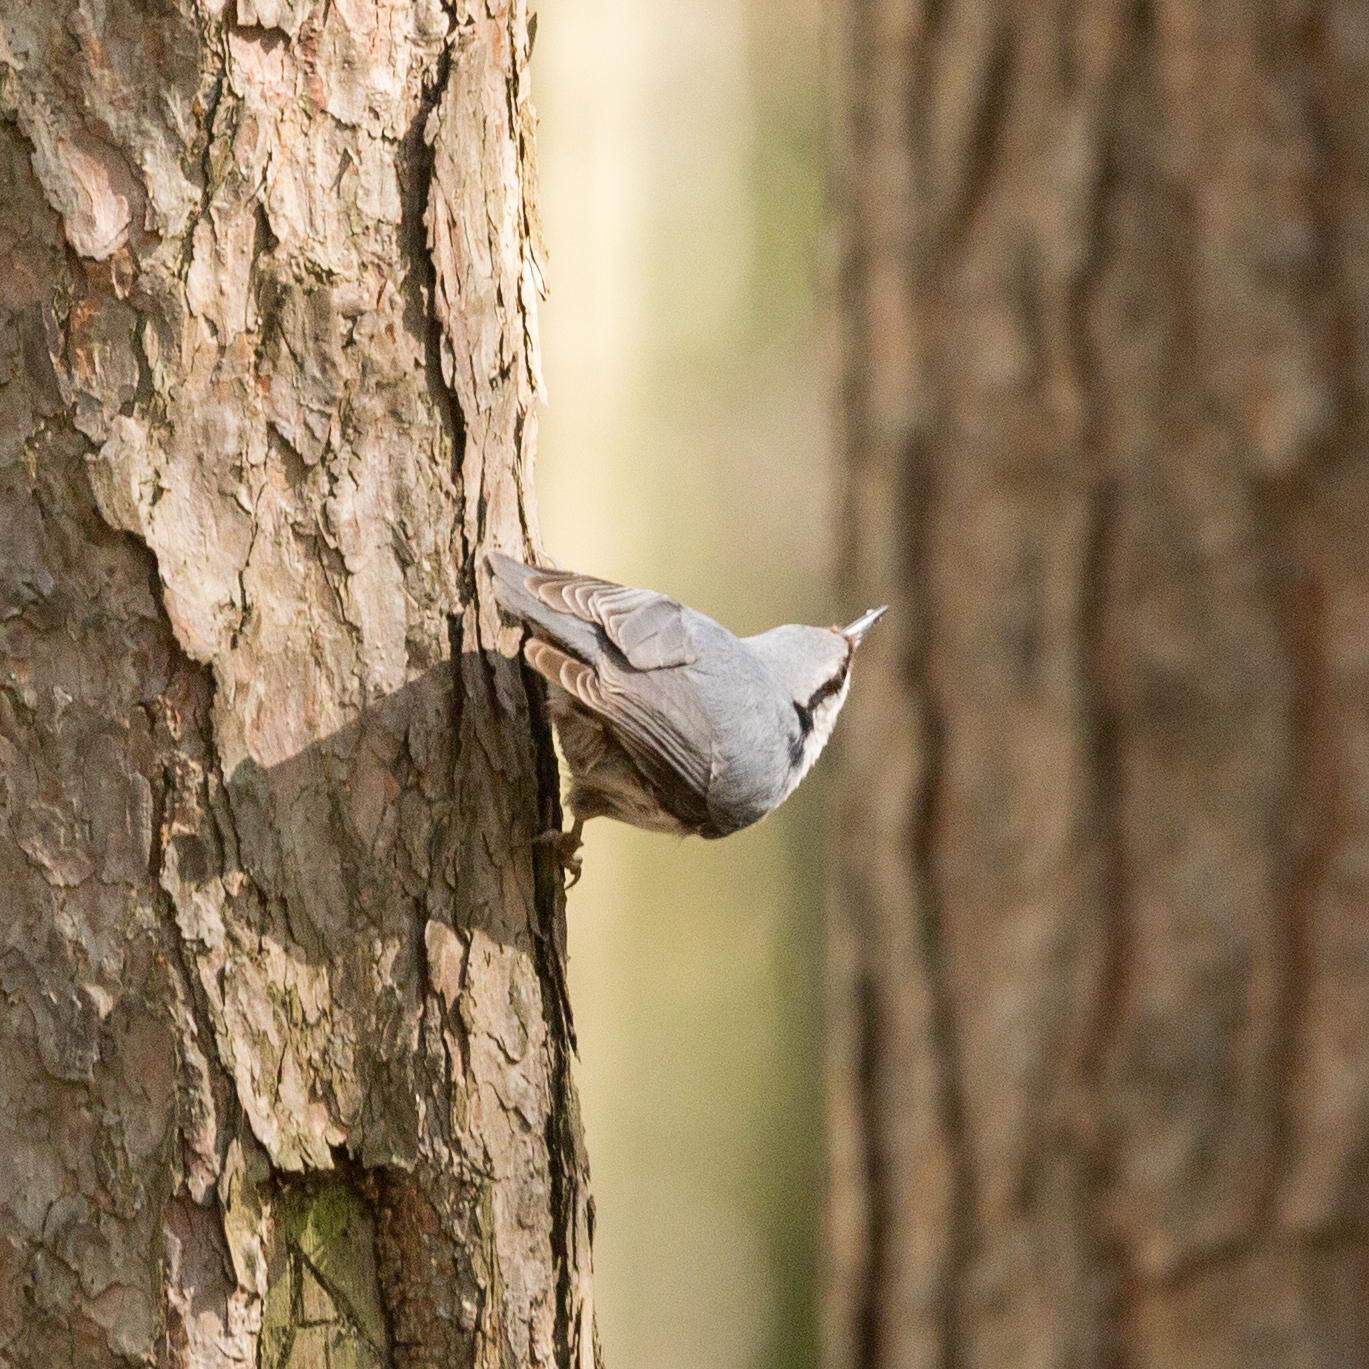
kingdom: Animalia
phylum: Chordata
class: Aves
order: Passeriformes
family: Sittidae
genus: Sitta
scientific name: Sitta europaea
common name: Eurasian nuthatch
